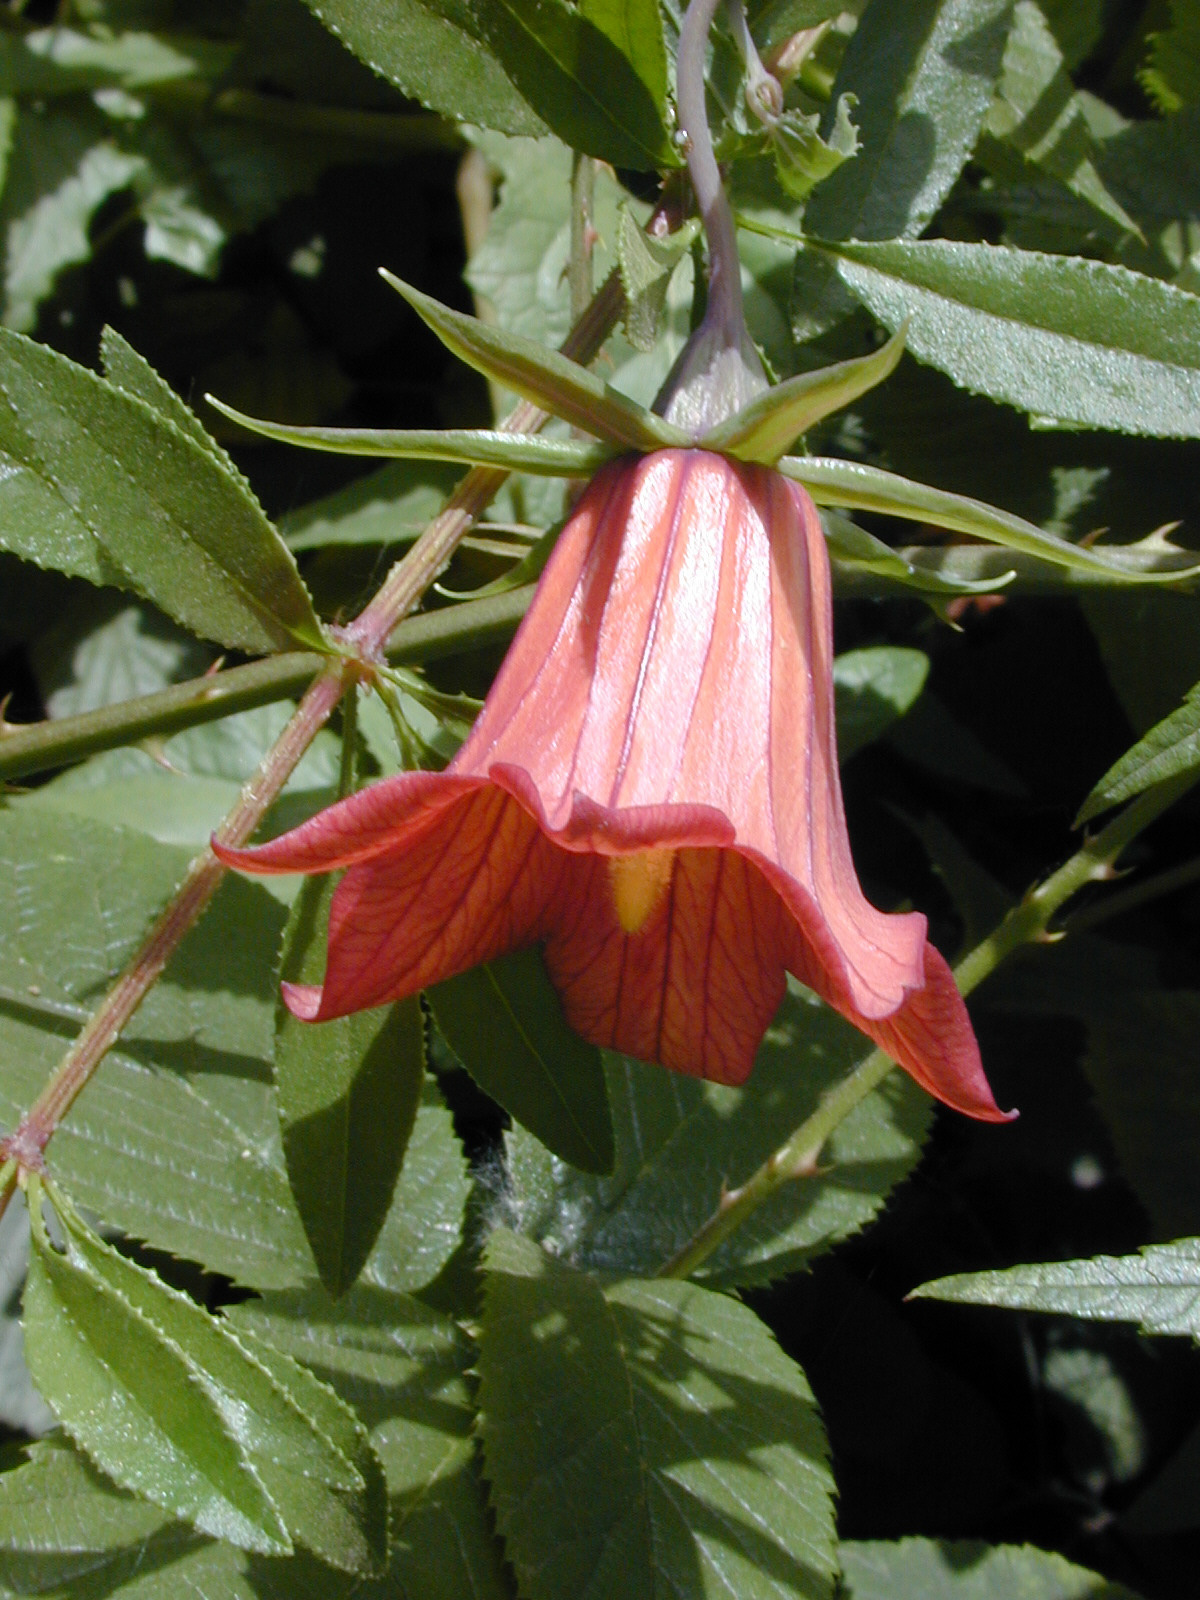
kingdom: Plantae
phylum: Tracheophyta
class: Magnoliopsida
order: Asterales
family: Campanulaceae
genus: Canarina
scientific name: Canarina canariensis
